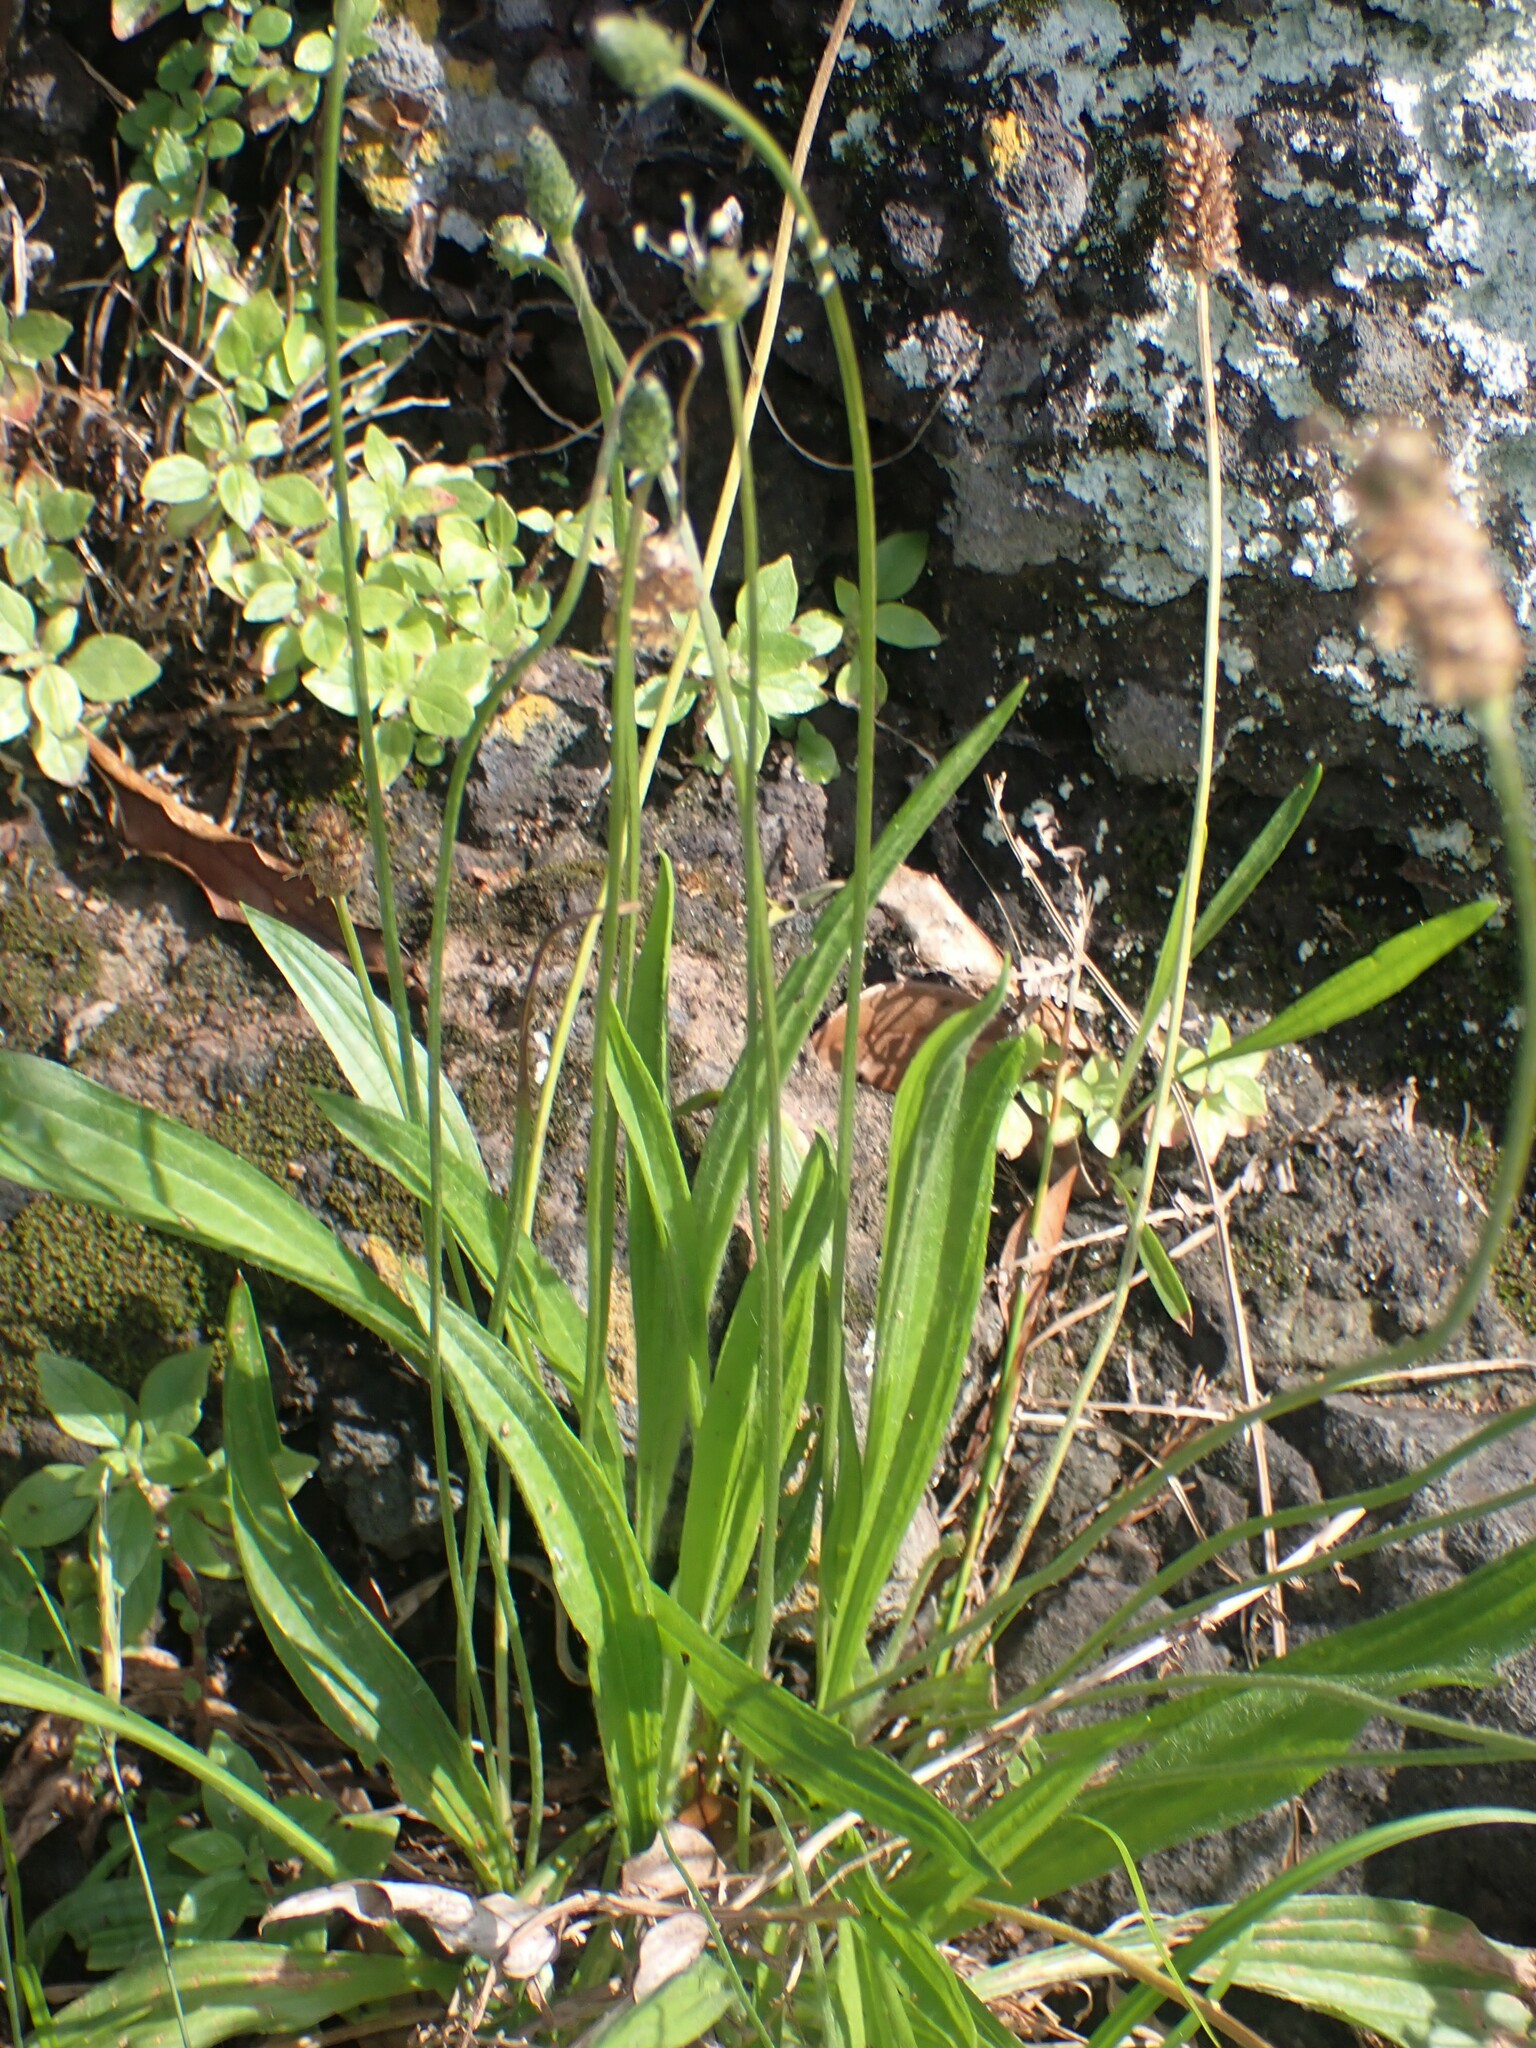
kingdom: Plantae
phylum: Tracheophyta
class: Magnoliopsida
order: Lamiales
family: Plantaginaceae
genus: Plantago
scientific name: Plantago lanceolata
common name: Ribwort plantain
